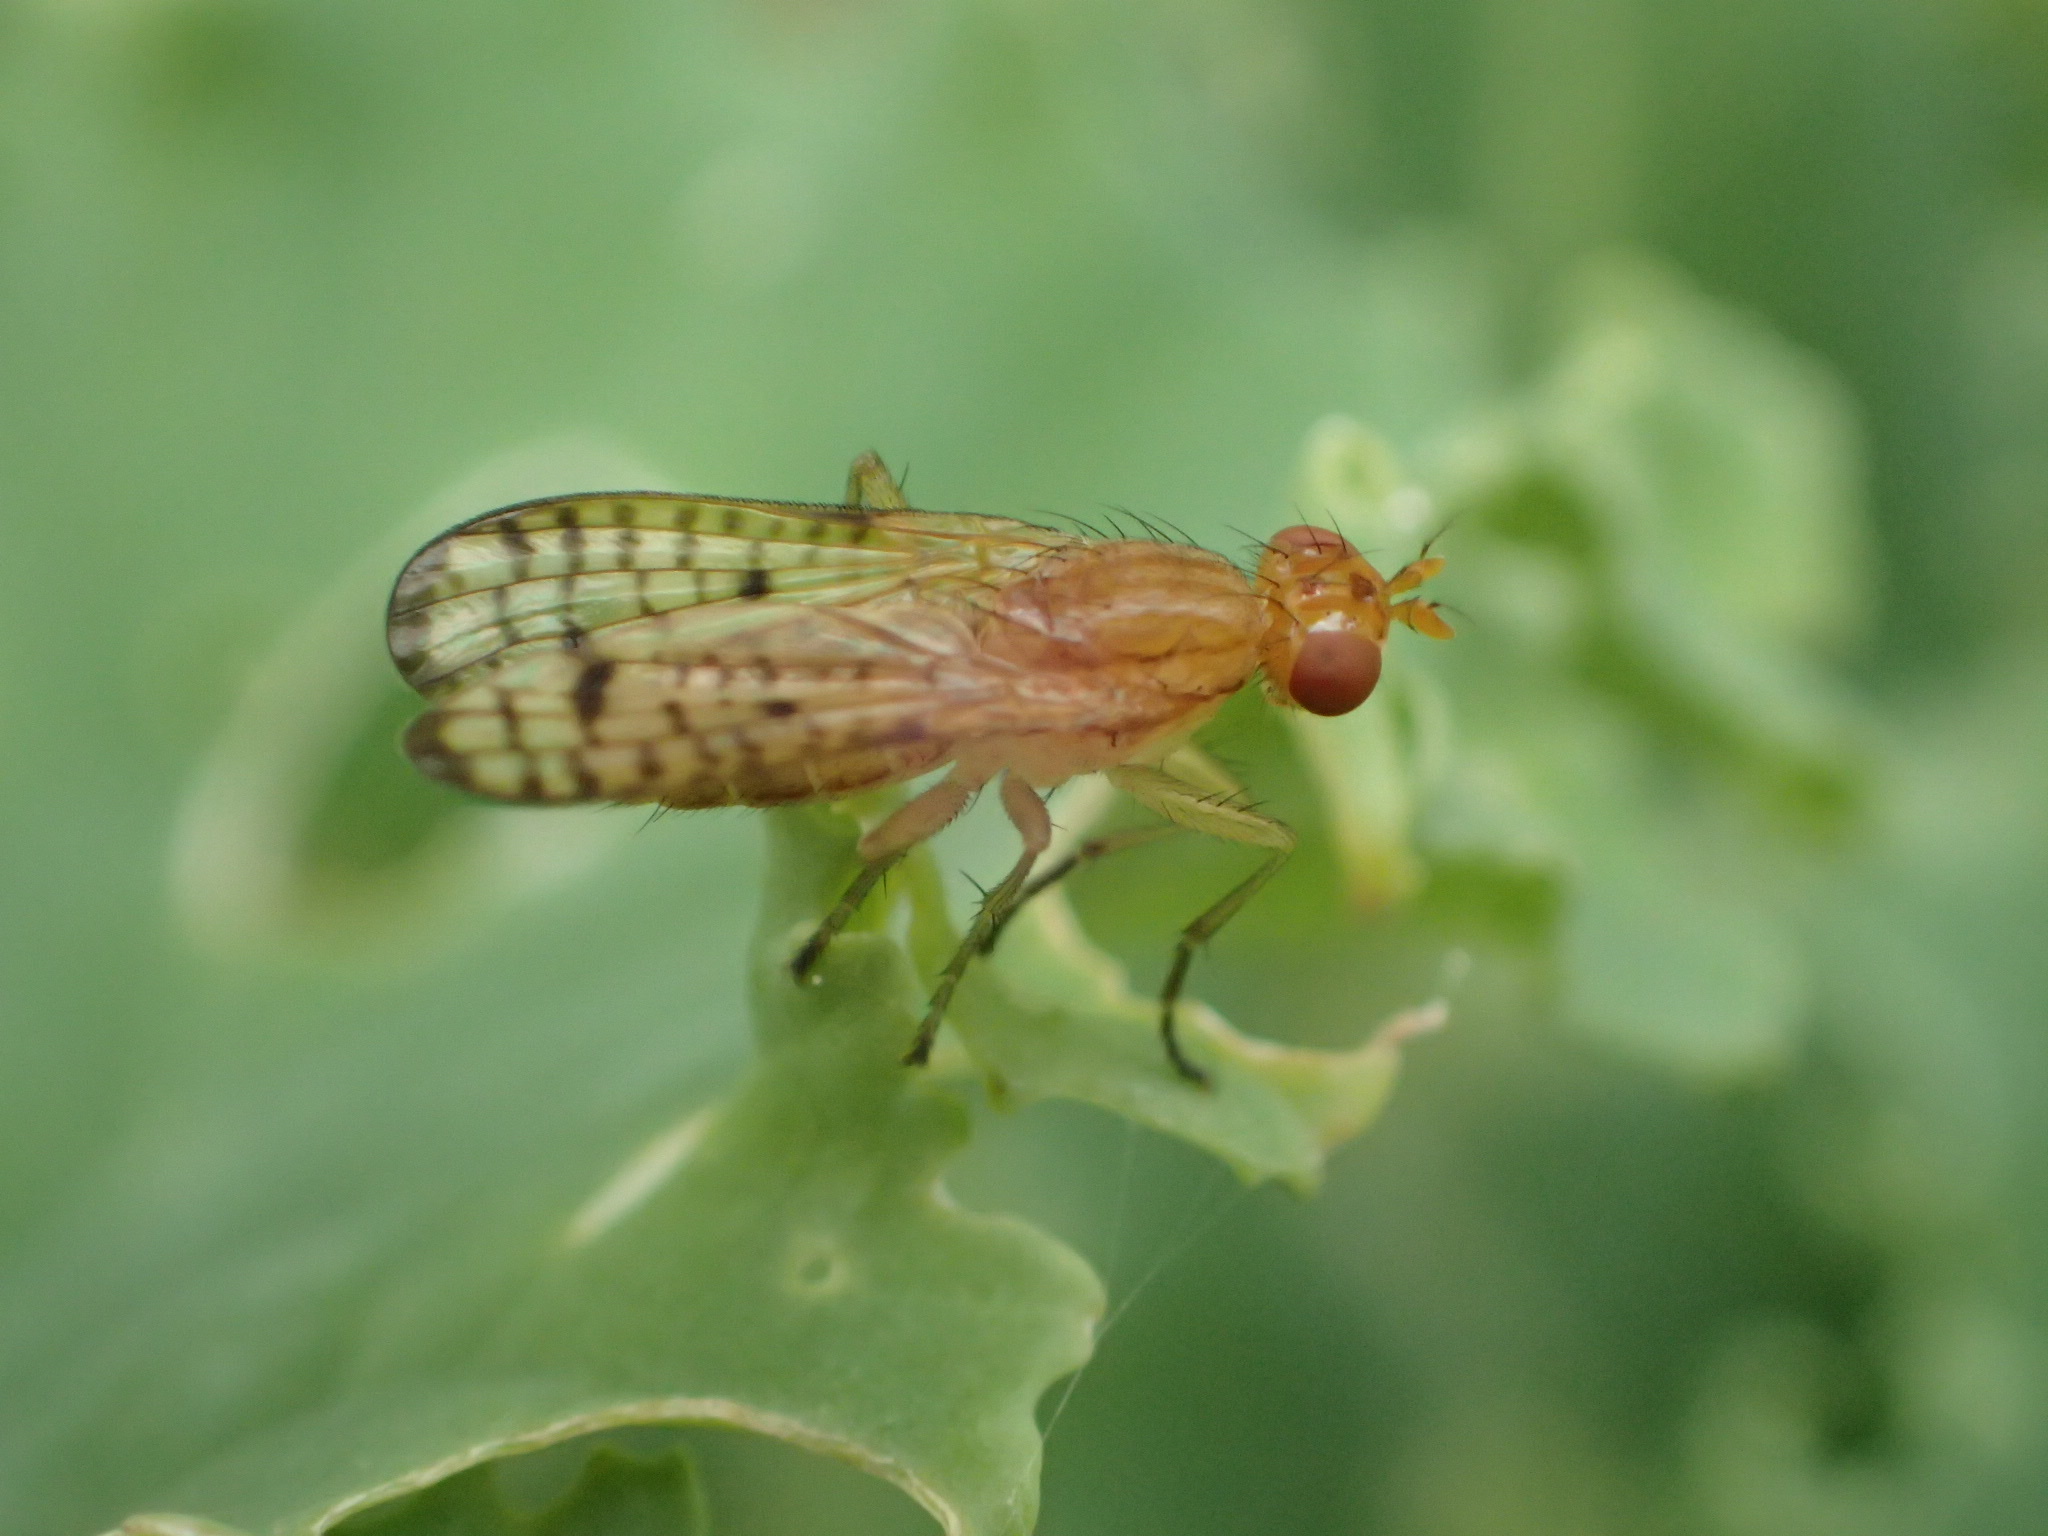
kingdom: Animalia
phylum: Arthropoda
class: Insecta
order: Diptera
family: Sciomyzidae
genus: Tetanocera
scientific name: Tetanocera valida
